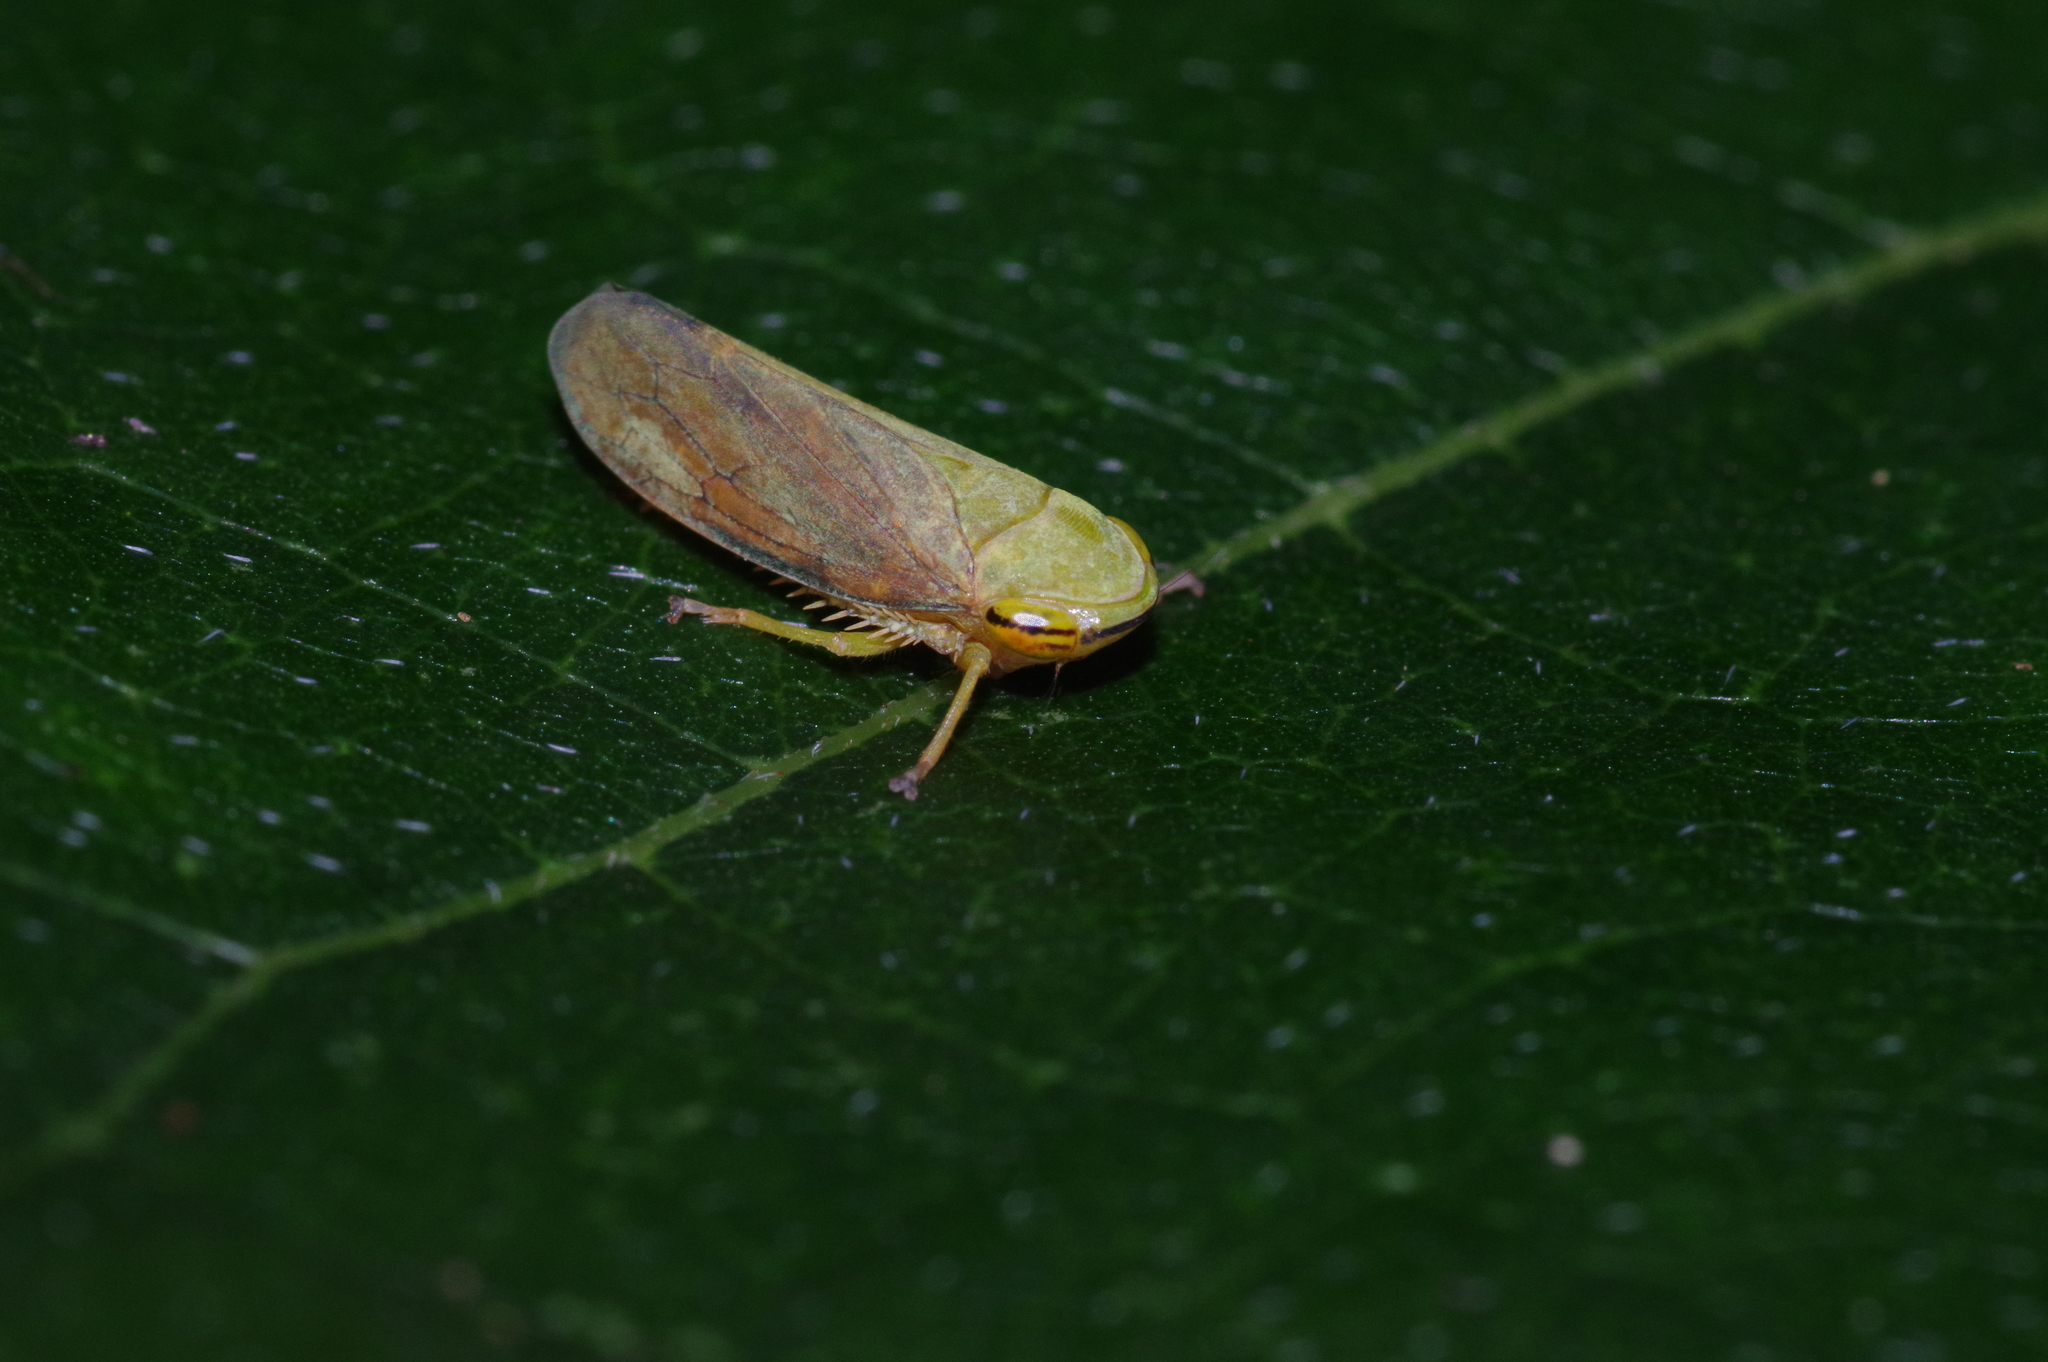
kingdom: Animalia
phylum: Arthropoda
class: Insecta
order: Hemiptera
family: Cicadellidae
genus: Tartessus
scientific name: Tartessus ferrugineus
